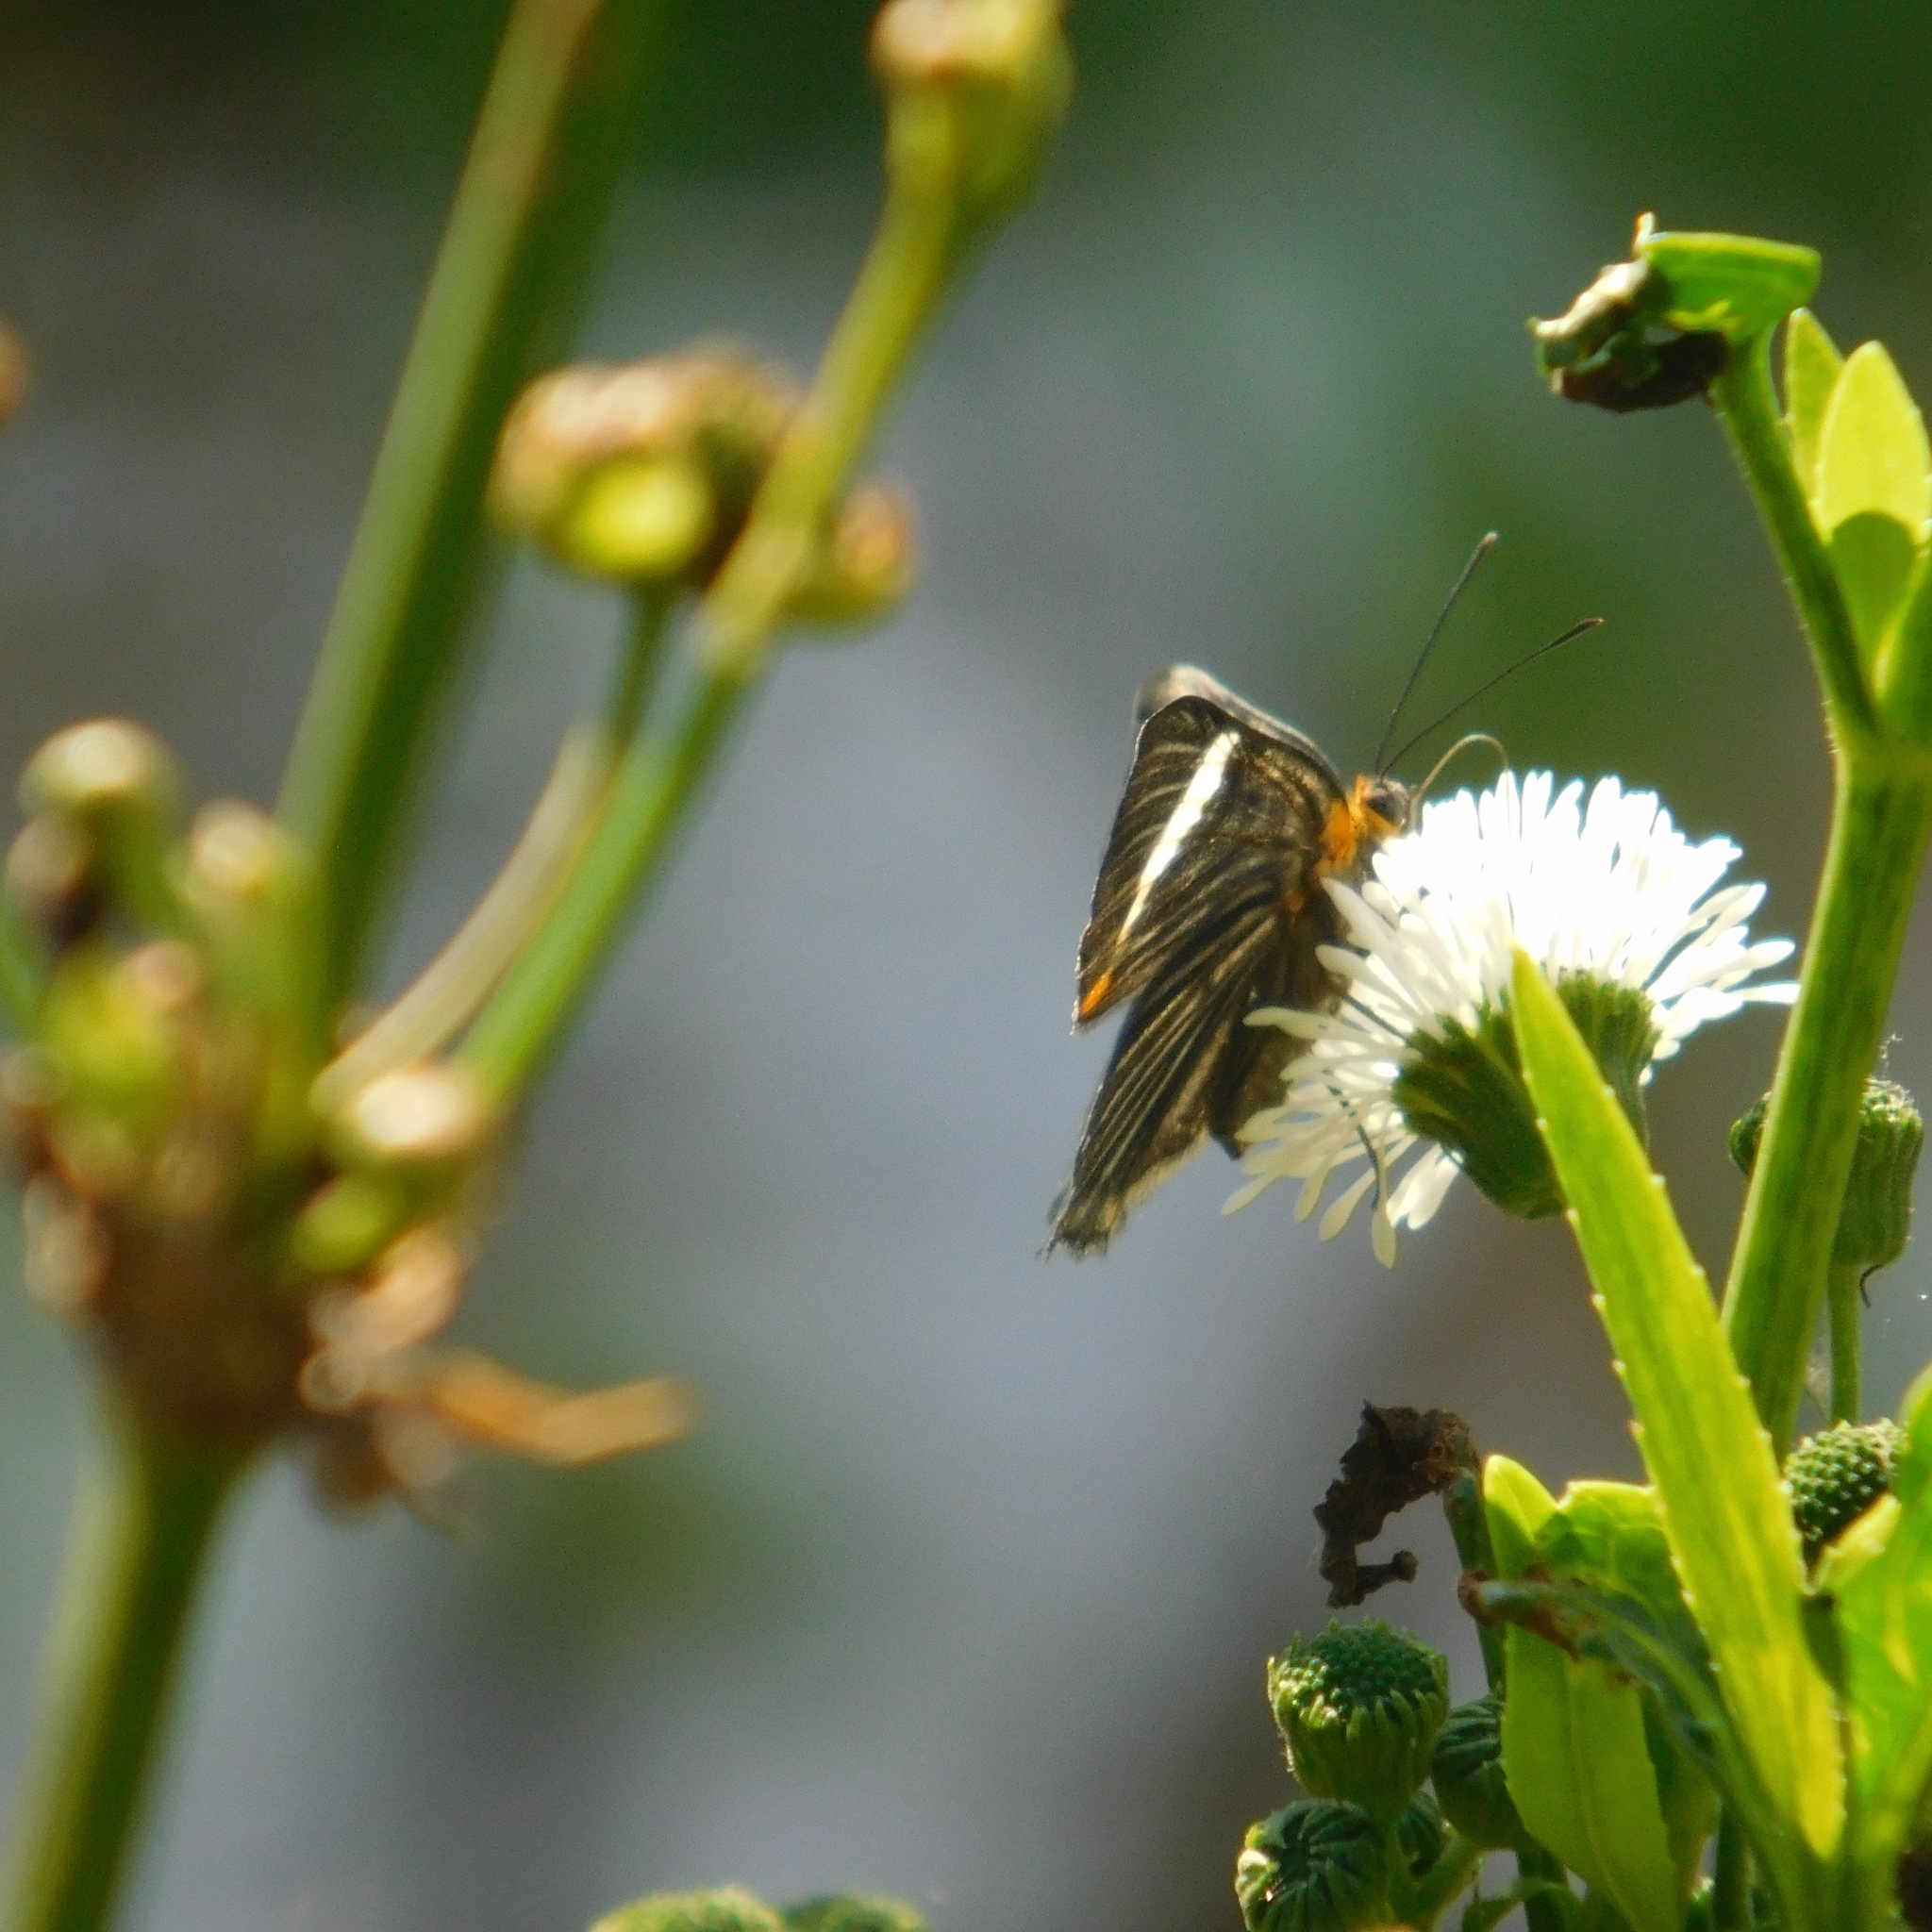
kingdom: Animalia
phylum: Arthropoda
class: Insecta
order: Lepidoptera
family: Riodinidae
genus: Riodina
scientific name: Riodina lycisca
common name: Lycisca metalmark
